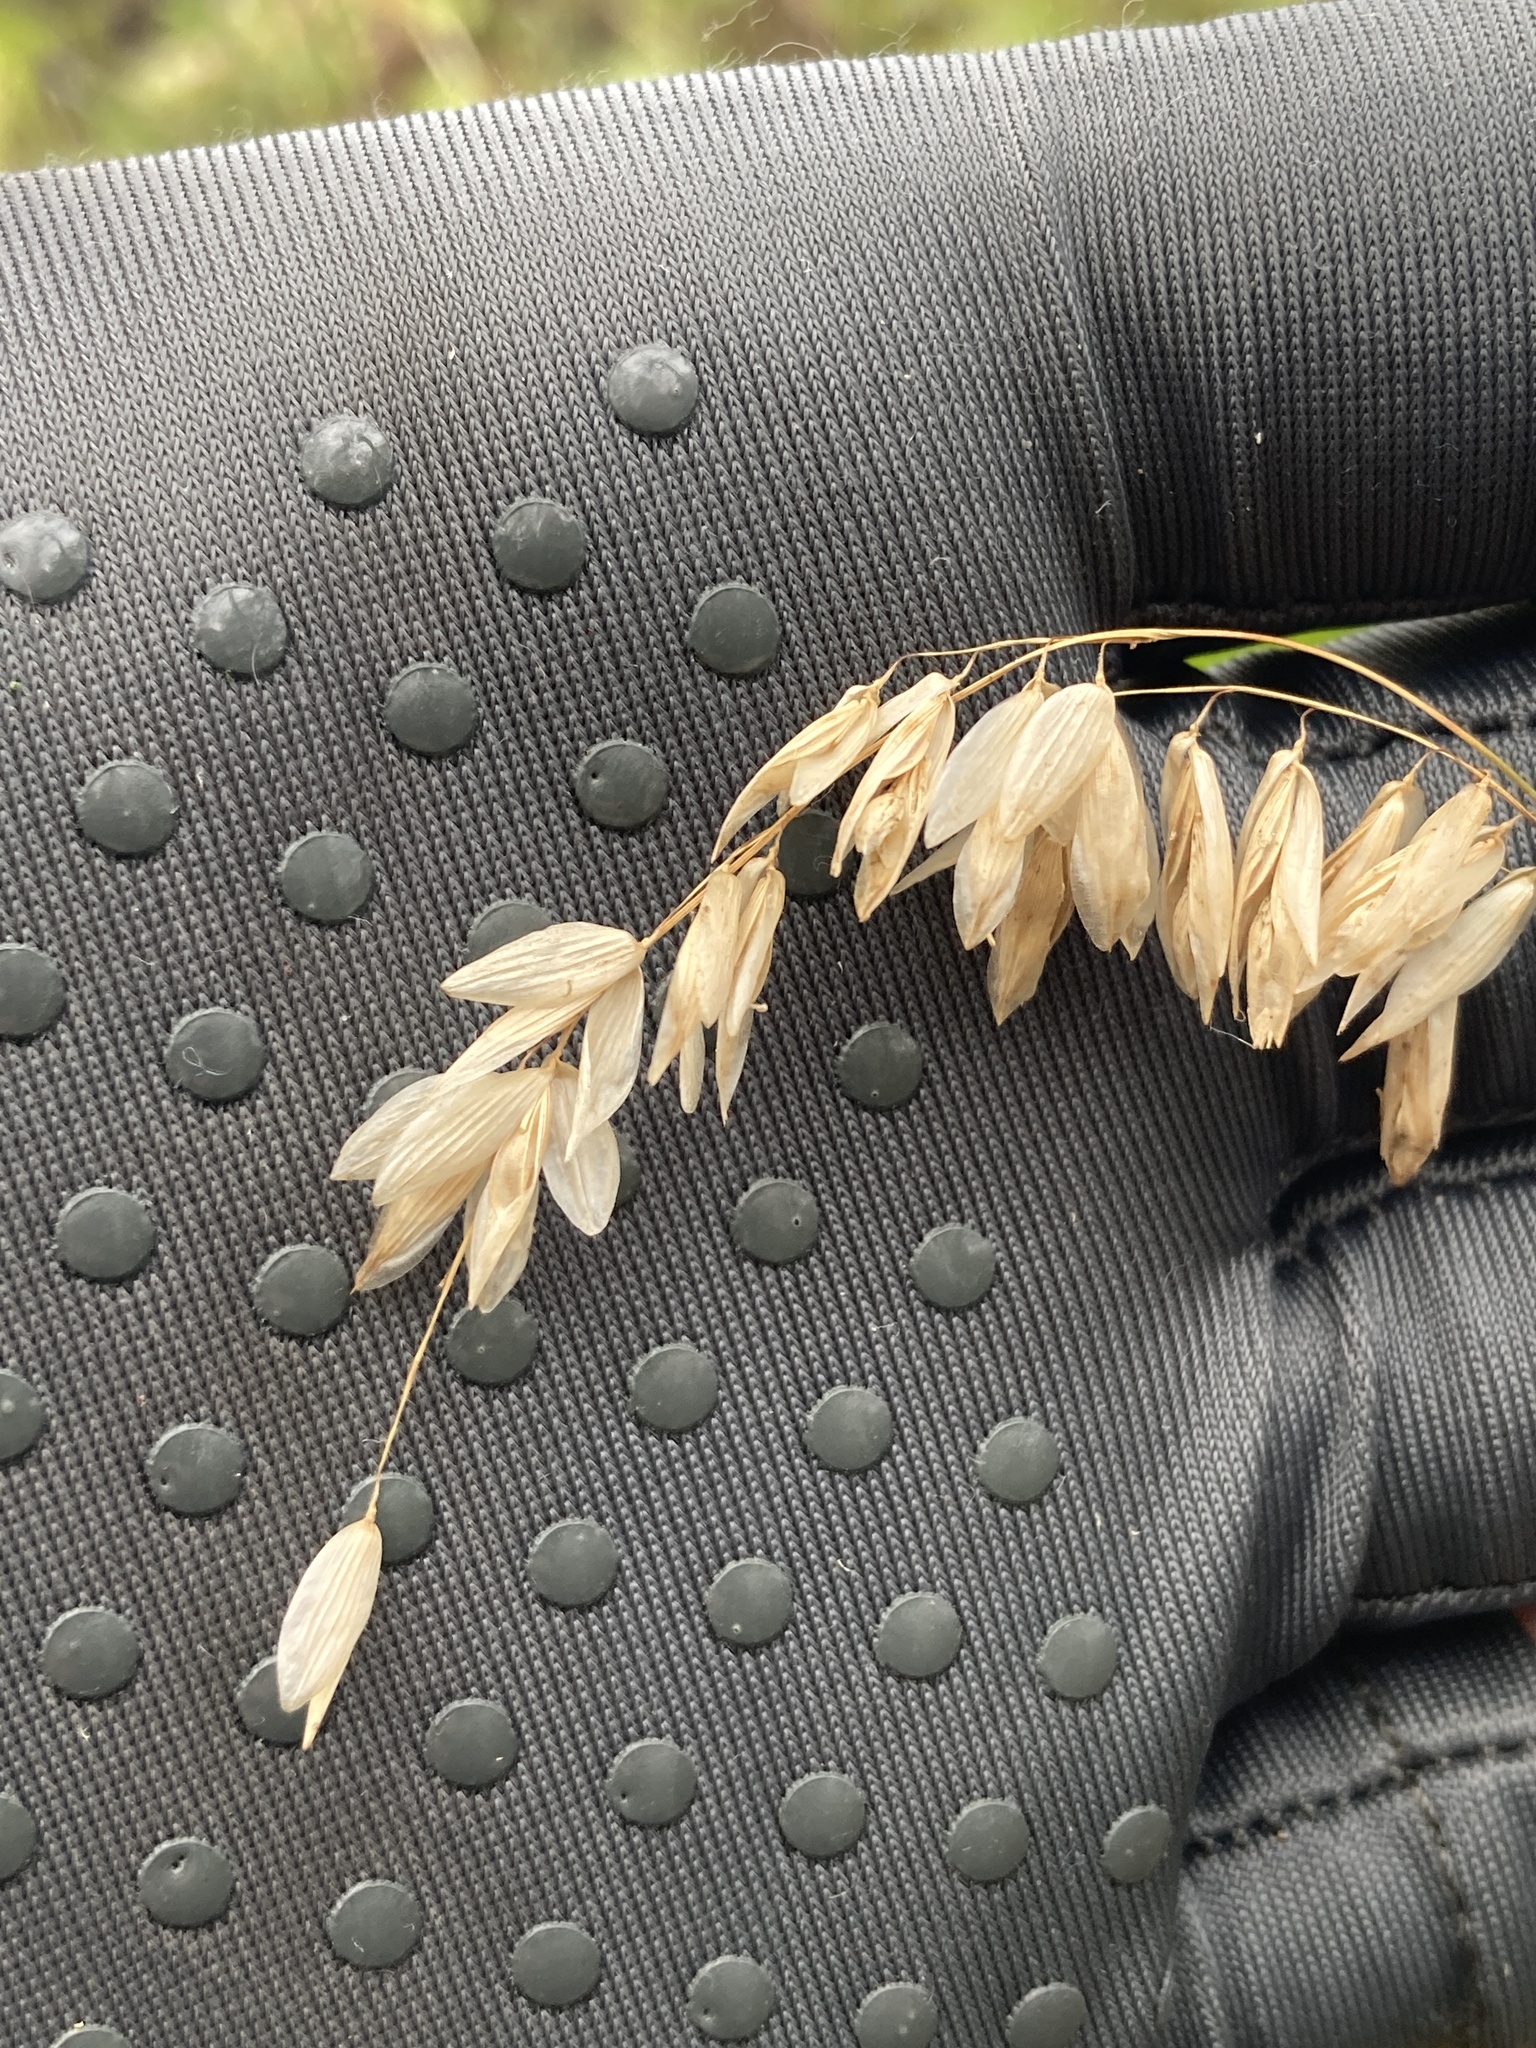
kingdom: Plantae
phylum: Tracheophyta
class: Liliopsida
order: Poales
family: Poaceae
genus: Melica
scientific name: Melica altissima
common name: Siberian melicgrass
